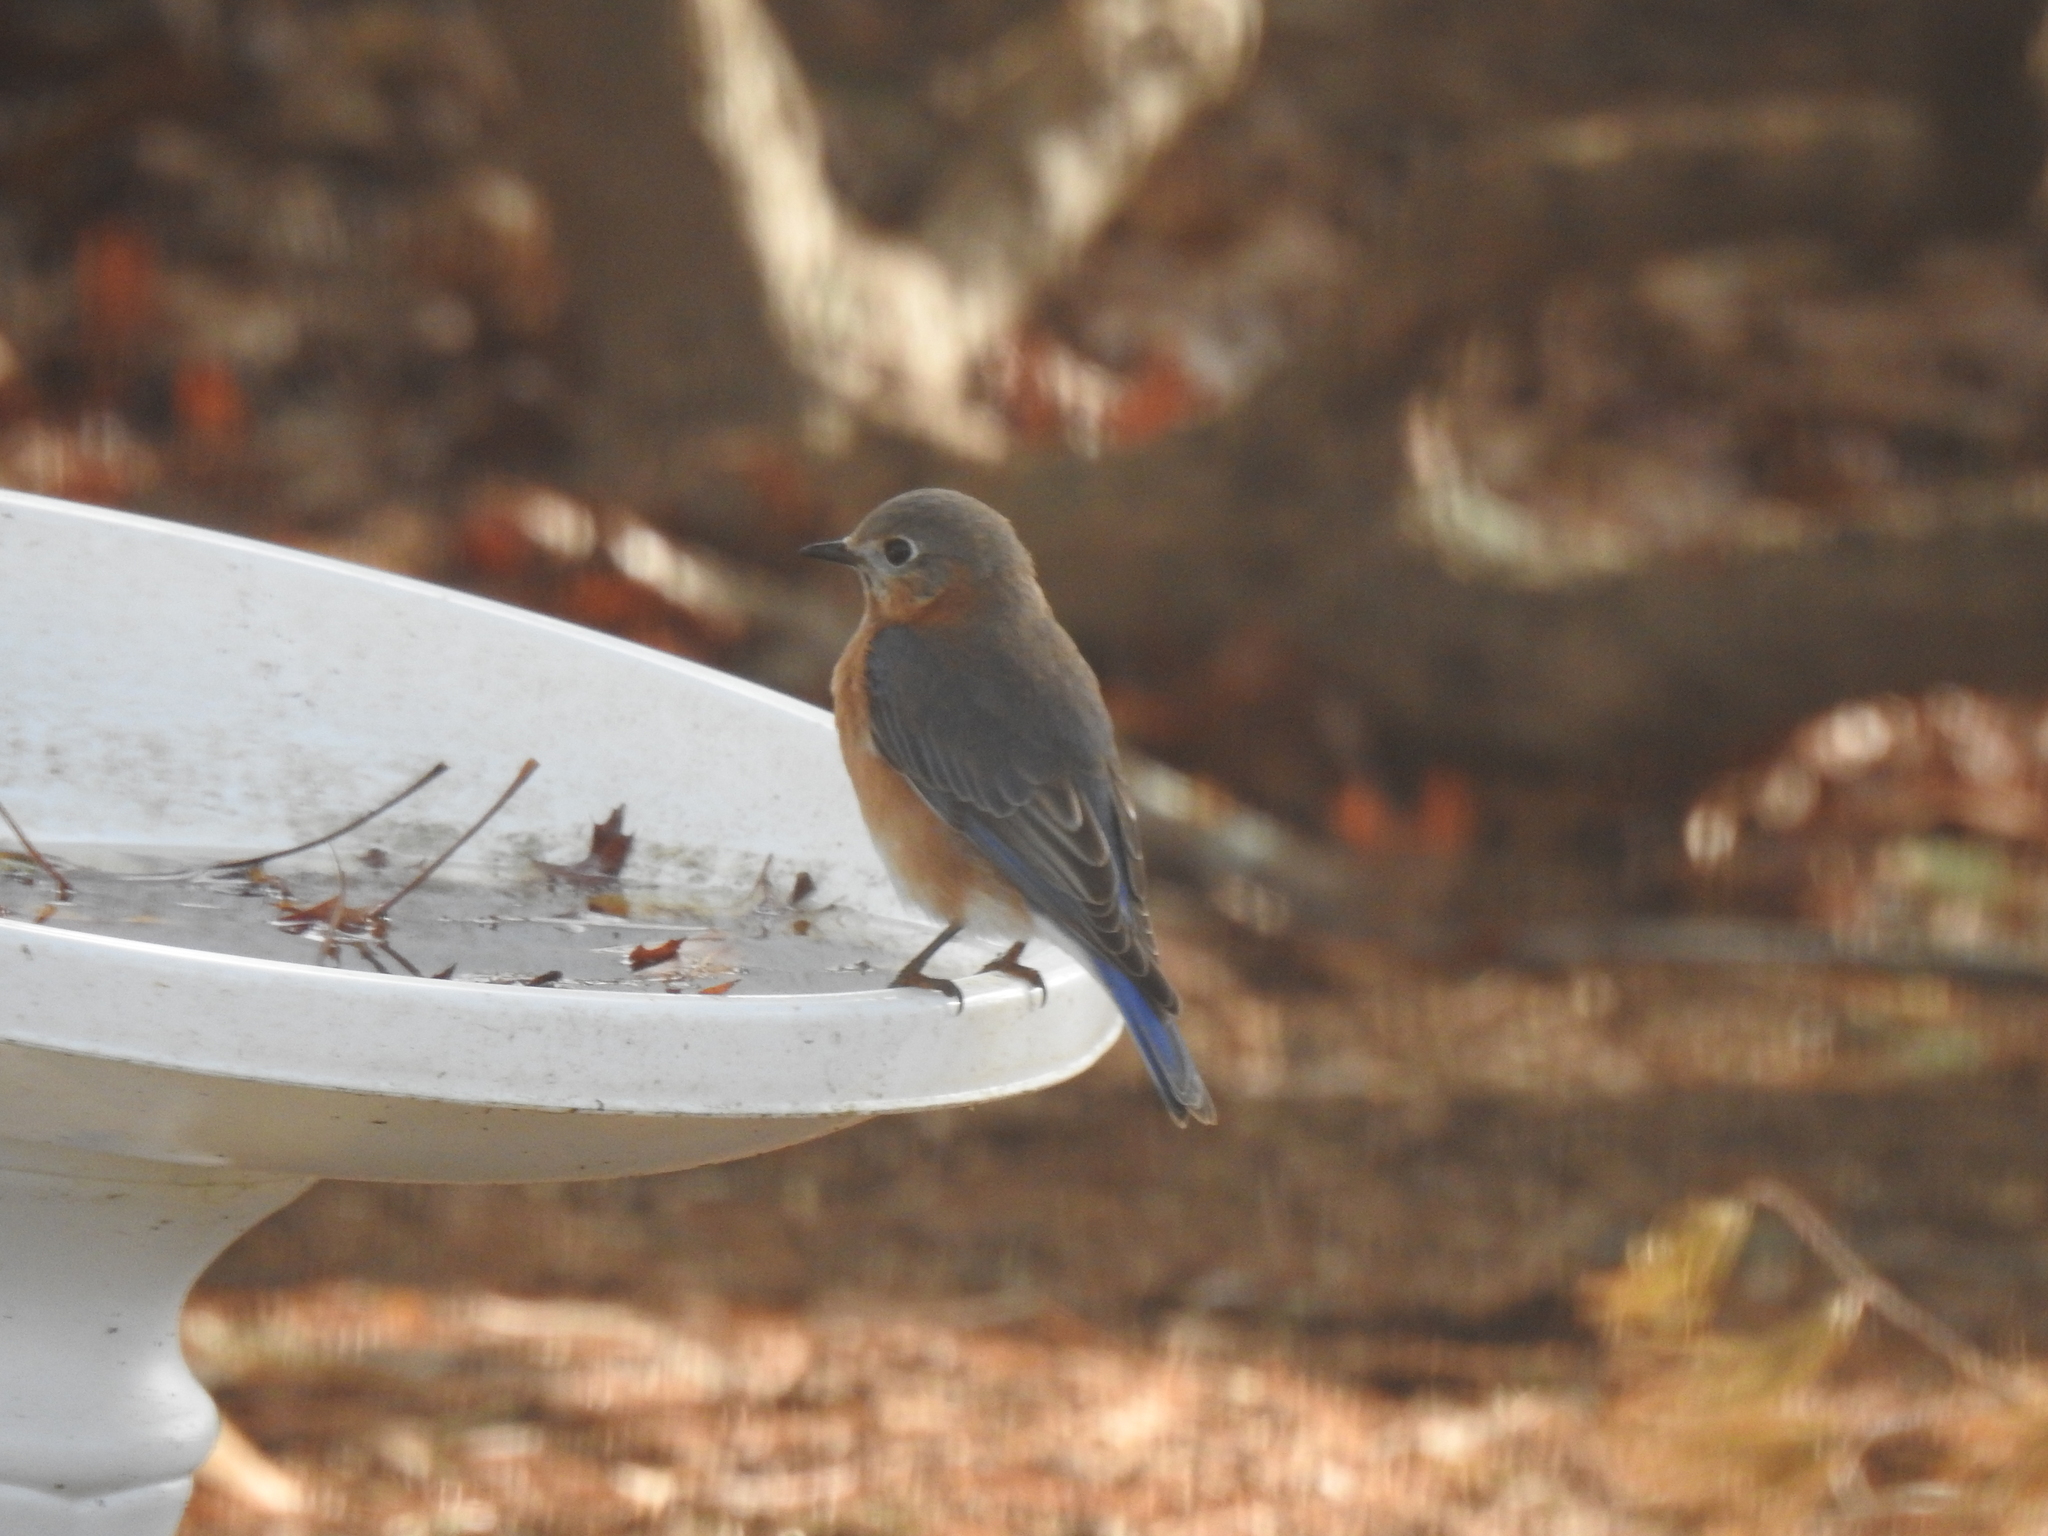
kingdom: Animalia
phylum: Chordata
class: Aves
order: Passeriformes
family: Turdidae
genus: Sialia
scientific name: Sialia sialis
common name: Eastern bluebird
